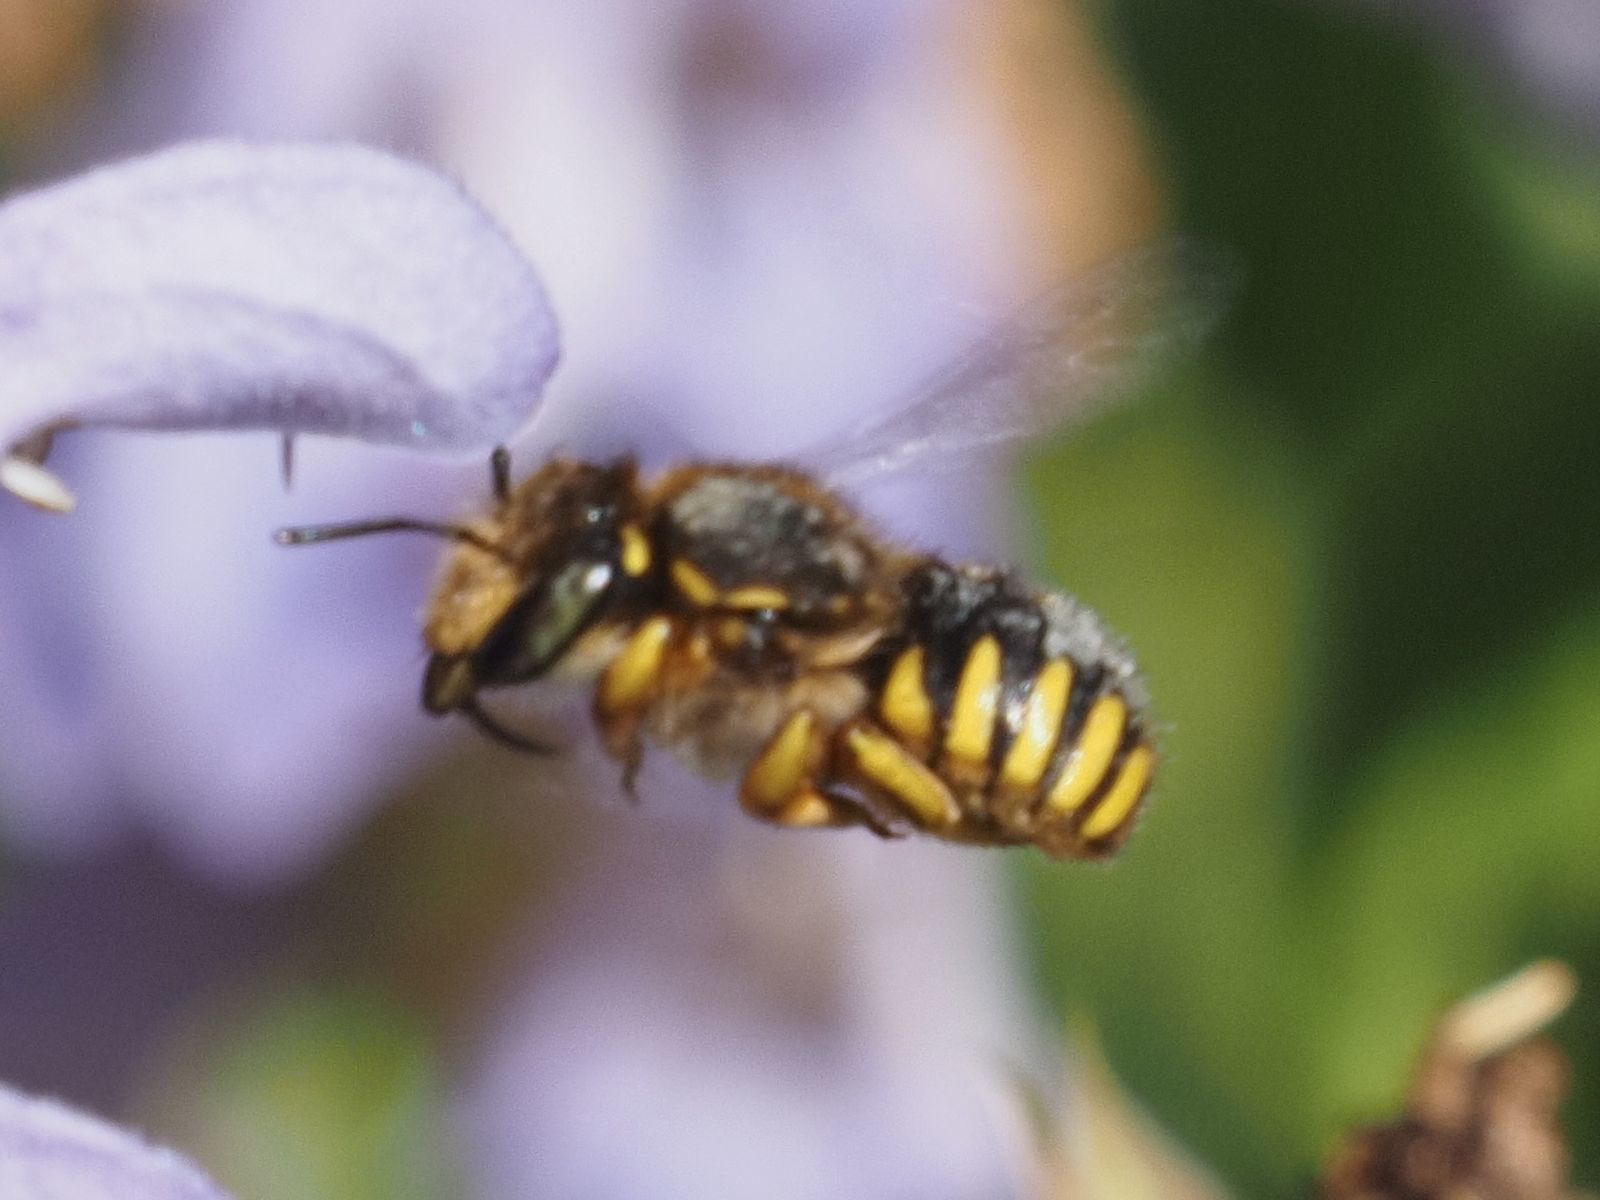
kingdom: Animalia
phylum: Arthropoda
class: Insecta
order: Hymenoptera
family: Megachilidae
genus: Anthidium
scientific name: Anthidium manicatum
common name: Wool carder bee
